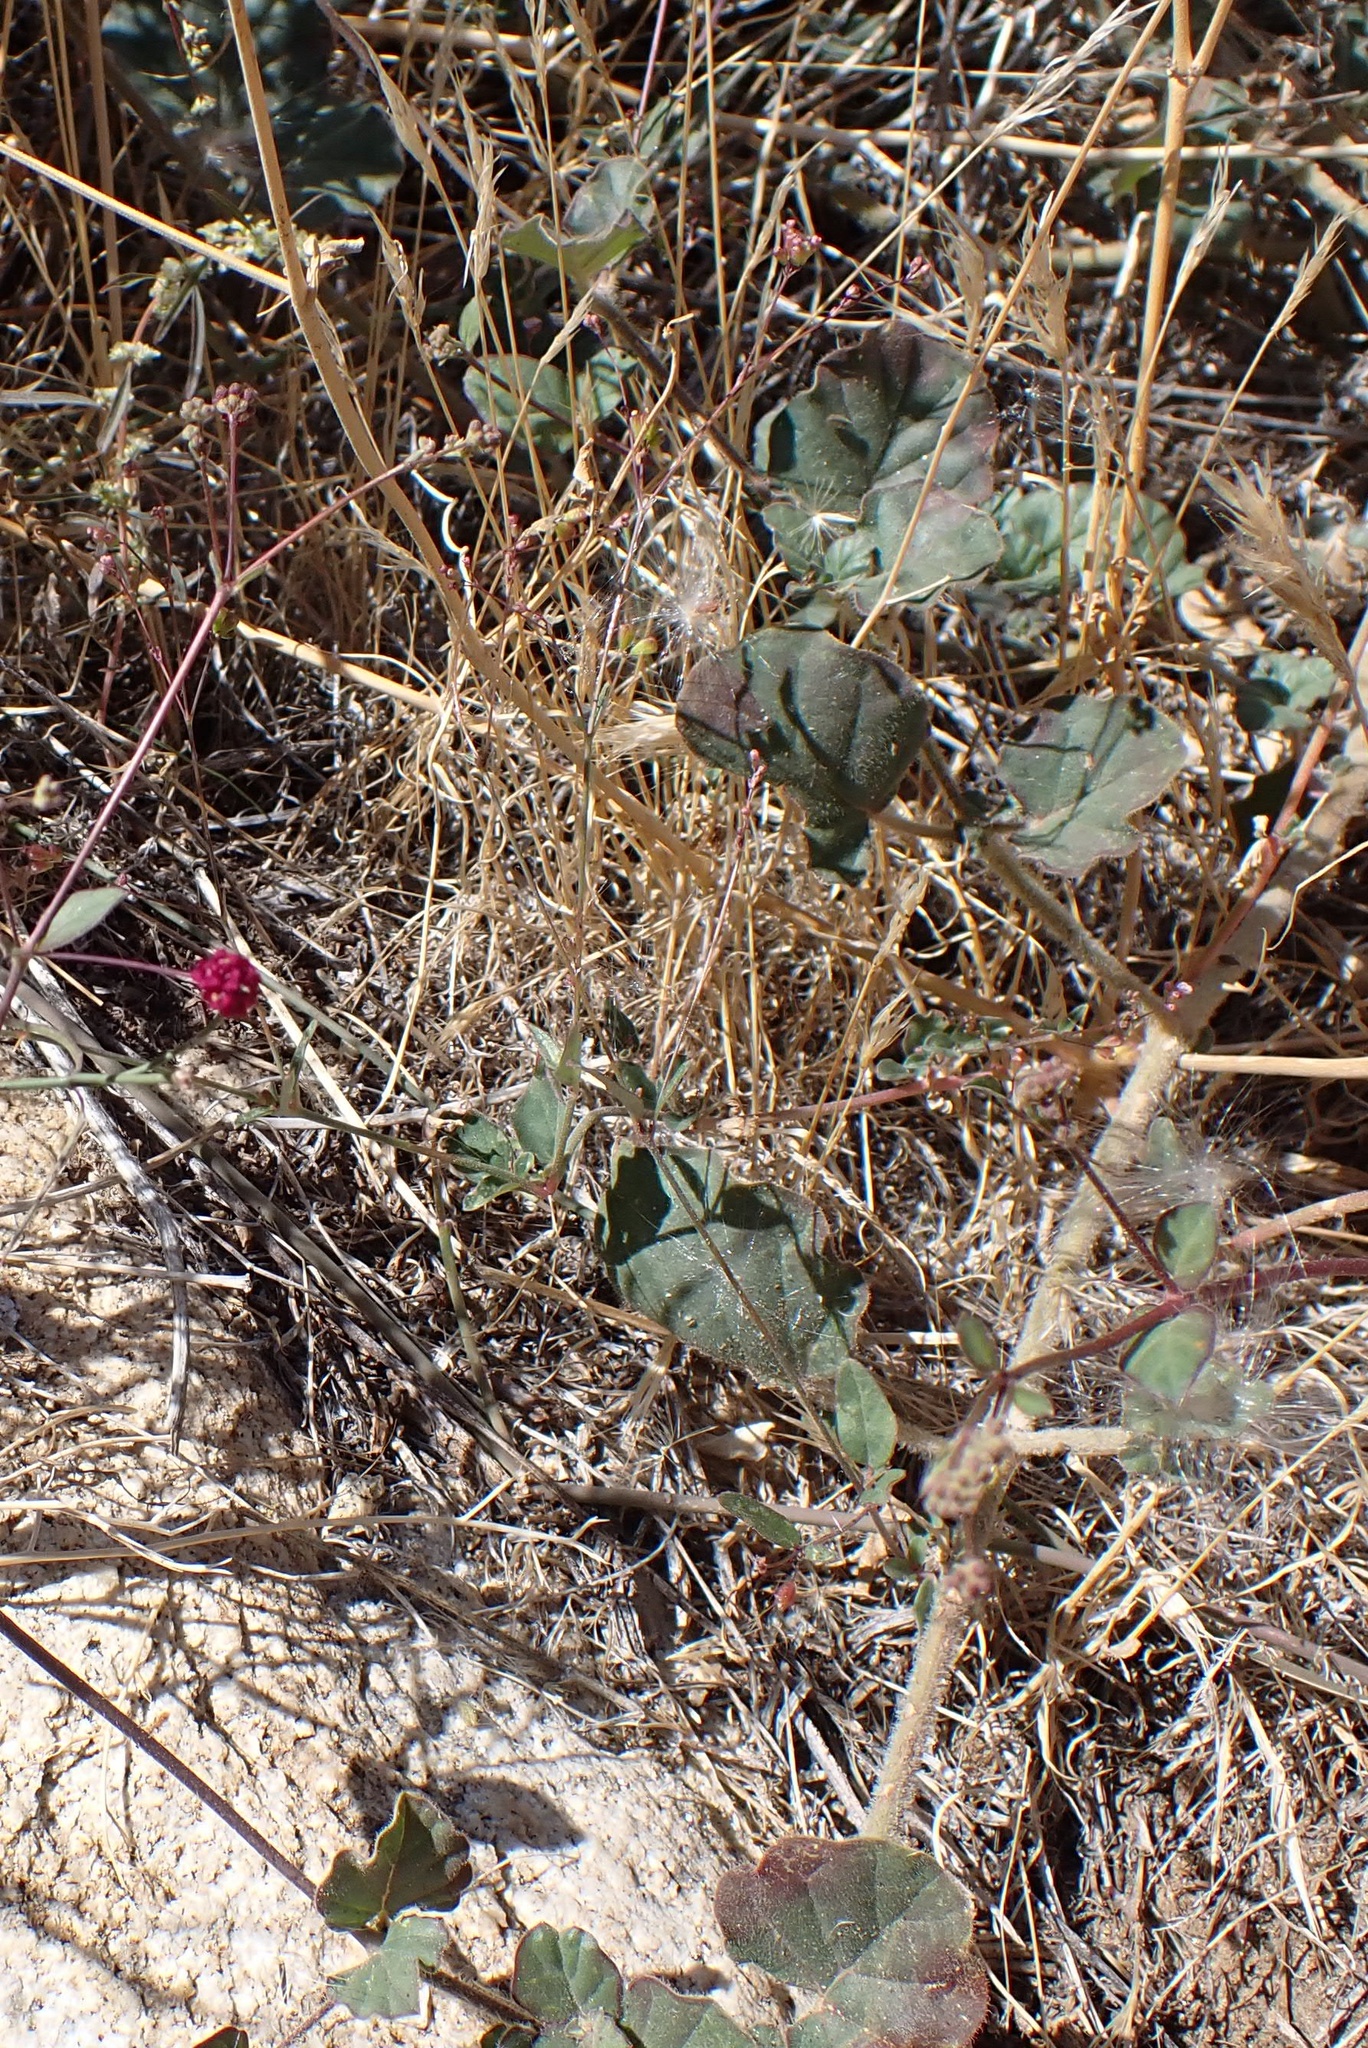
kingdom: Plantae
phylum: Tracheophyta
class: Magnoliopsida
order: Caryophyllales
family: Nyctaginaceae
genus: Boerhavia
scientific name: Boerhavia coccinea
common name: Scarlet spiderling
